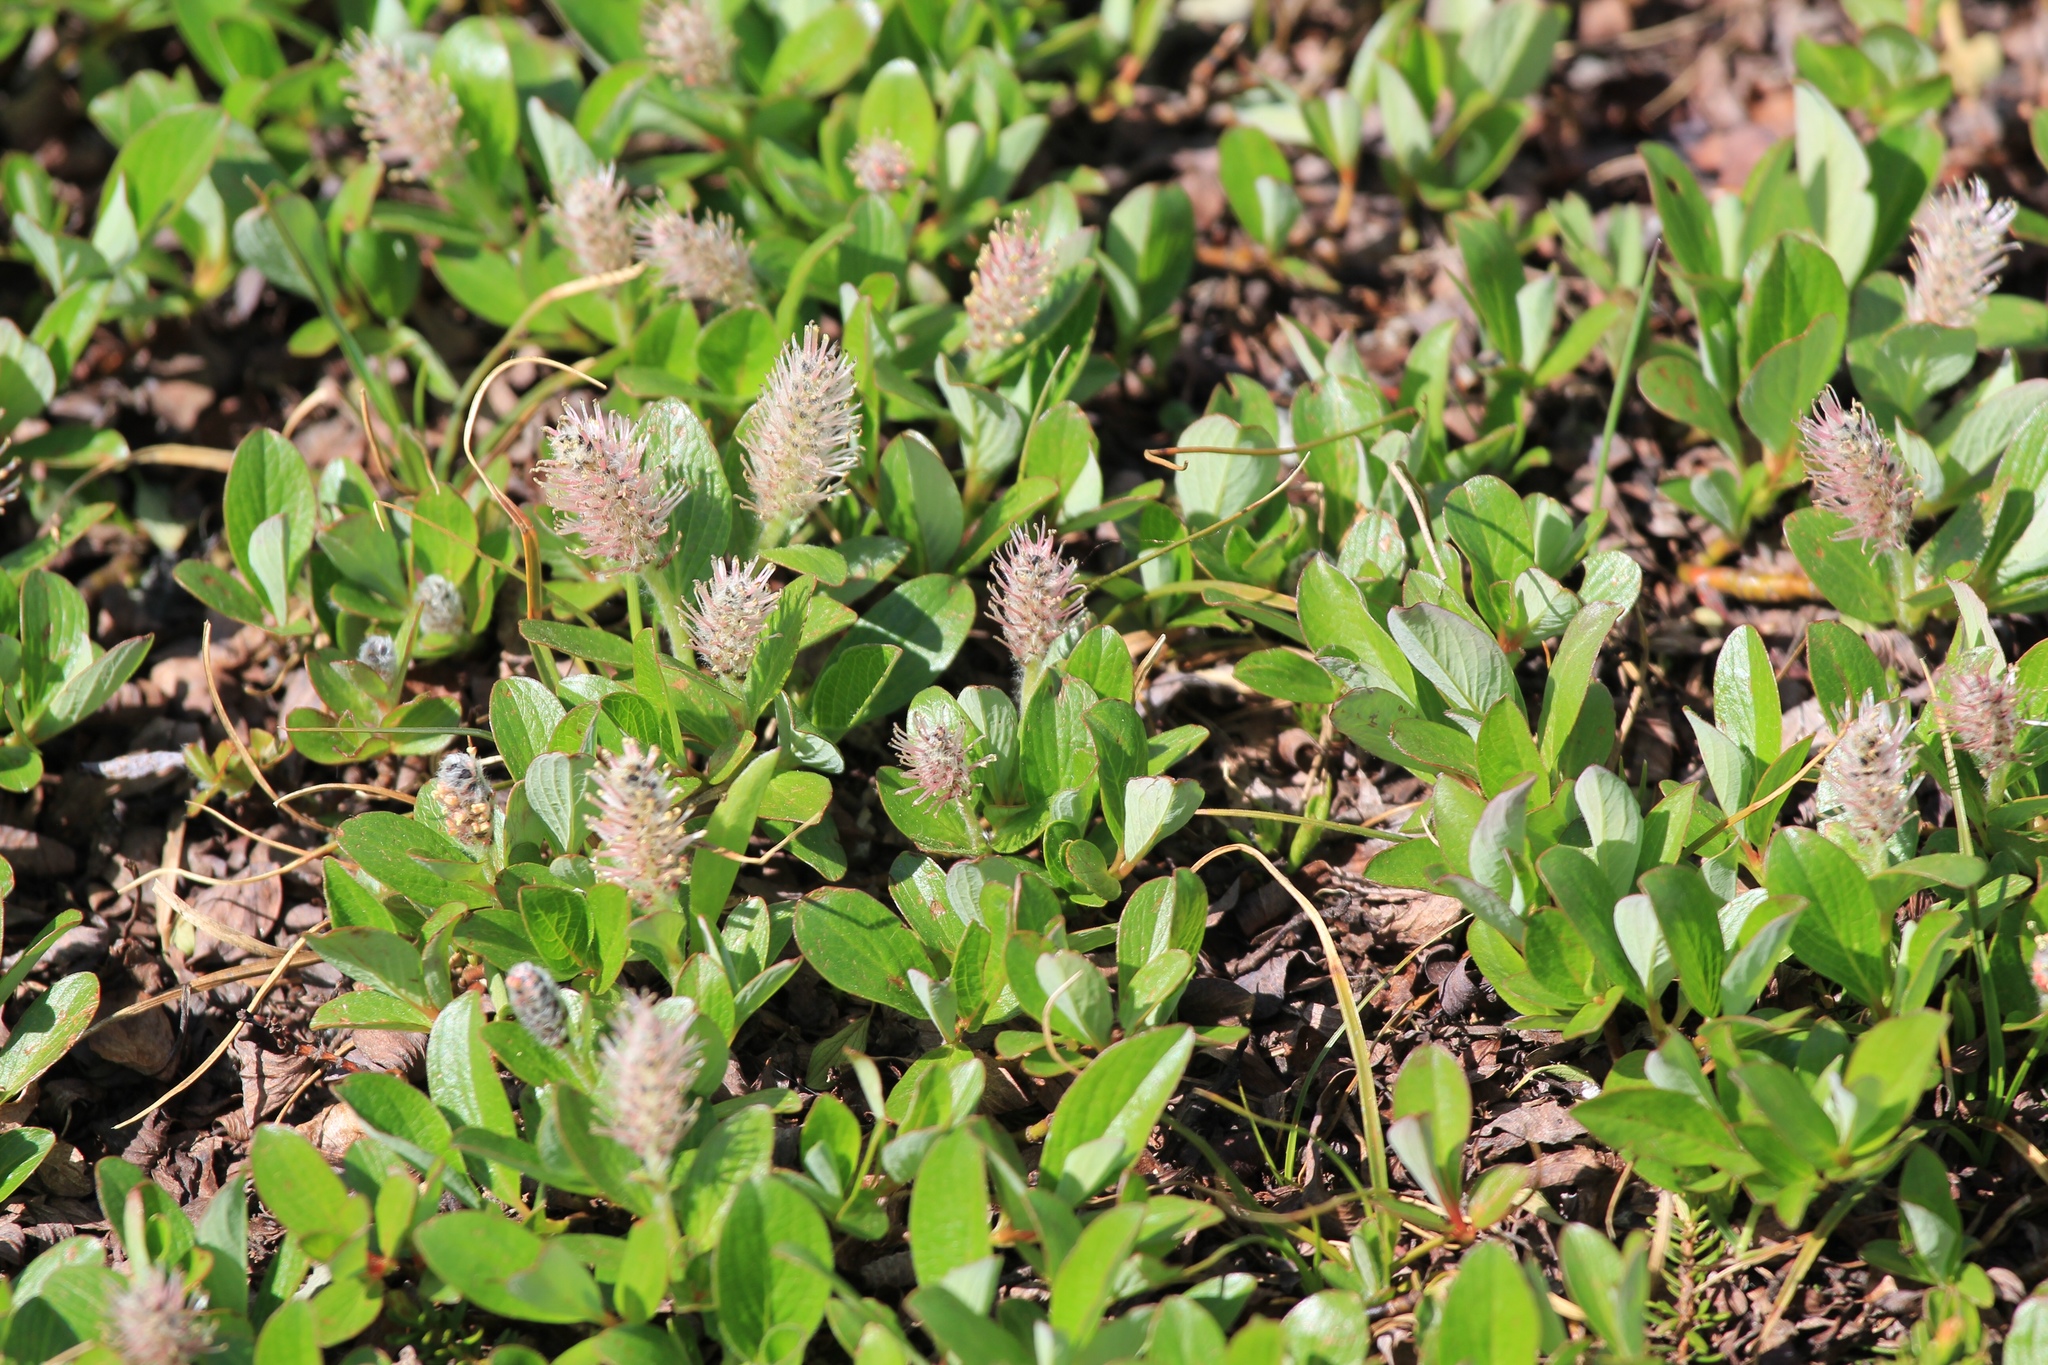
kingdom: Plantae
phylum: Tracheophyta
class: Magnoliopsida
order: Malpighiales
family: Salicaceae
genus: Salix
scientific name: Salix petrophila
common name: Rocky mountain willow
